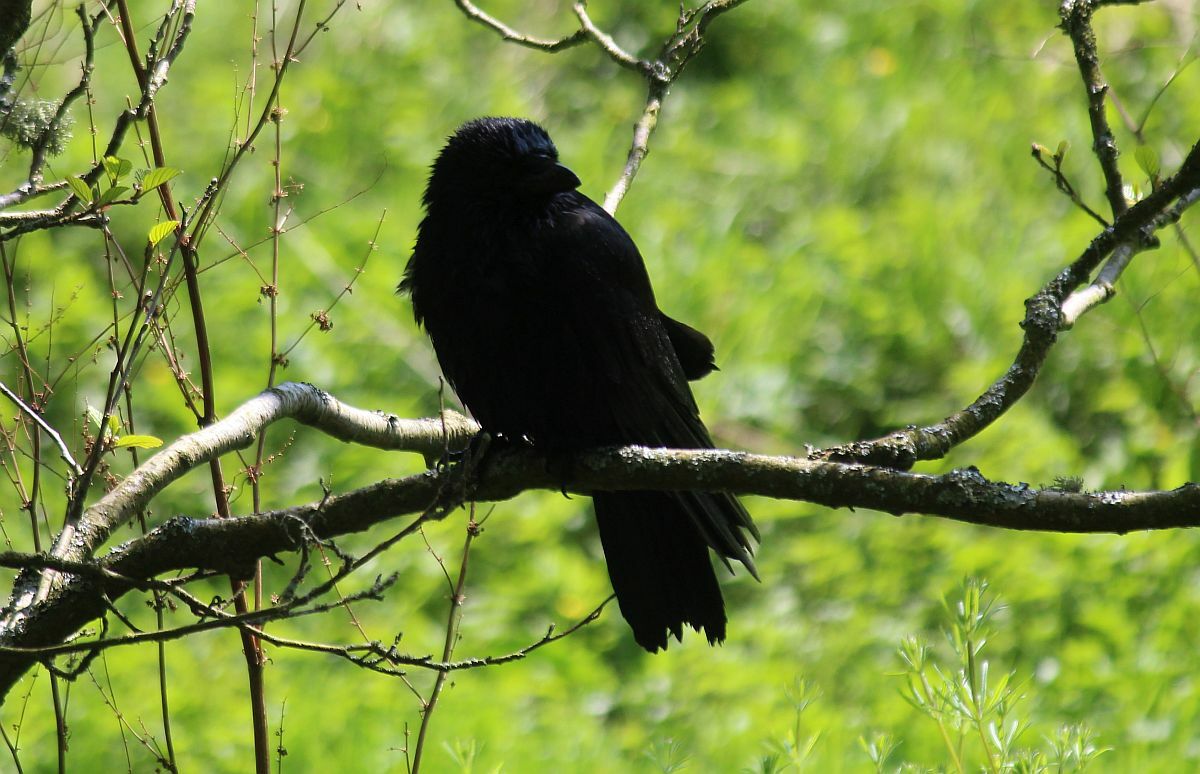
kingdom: Animalia
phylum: Chordata
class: Aves
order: Passeriformes
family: Corvidae
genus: Corvus
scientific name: Corvus corone
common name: Carrion crow
